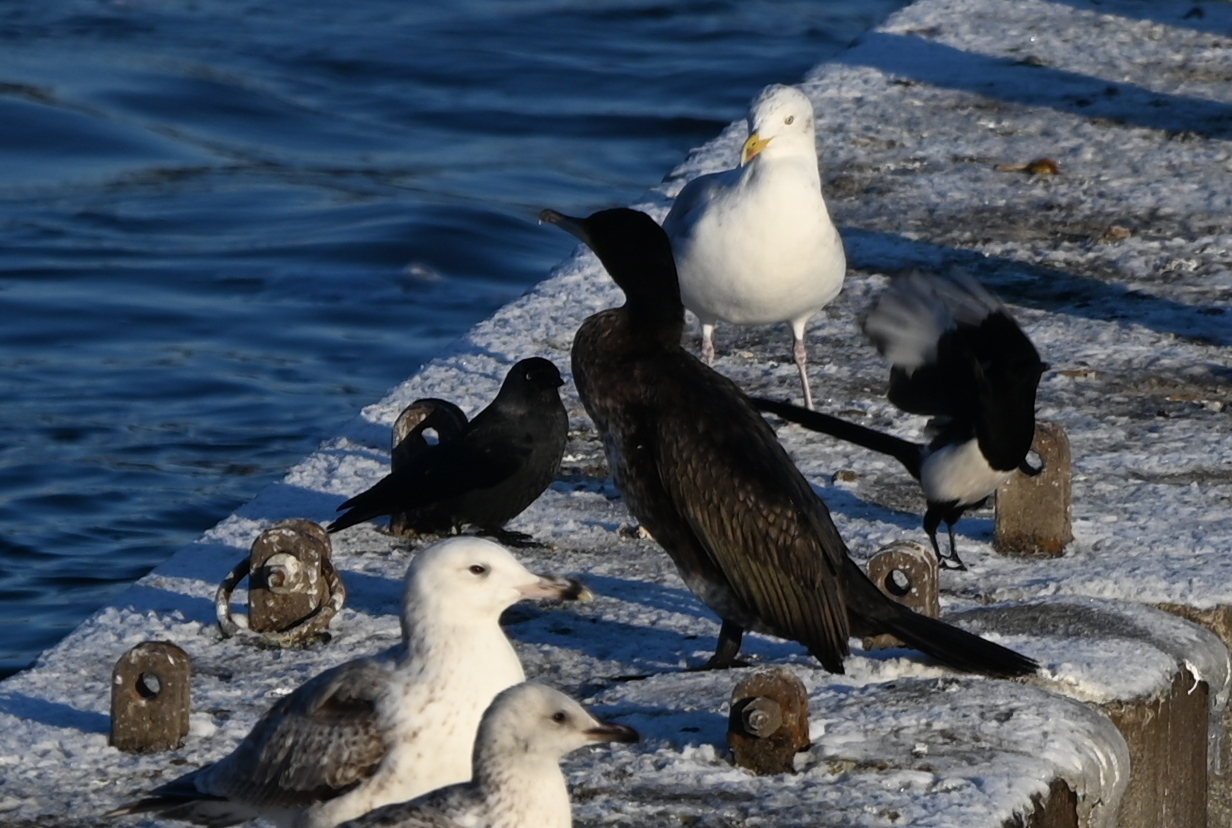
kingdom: Animalia
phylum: Chordata
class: Aves
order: Suliformes
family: Phalacrocoracidae
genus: Phalacrocorax
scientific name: Phalacrocorax carbo
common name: Great cormorant
